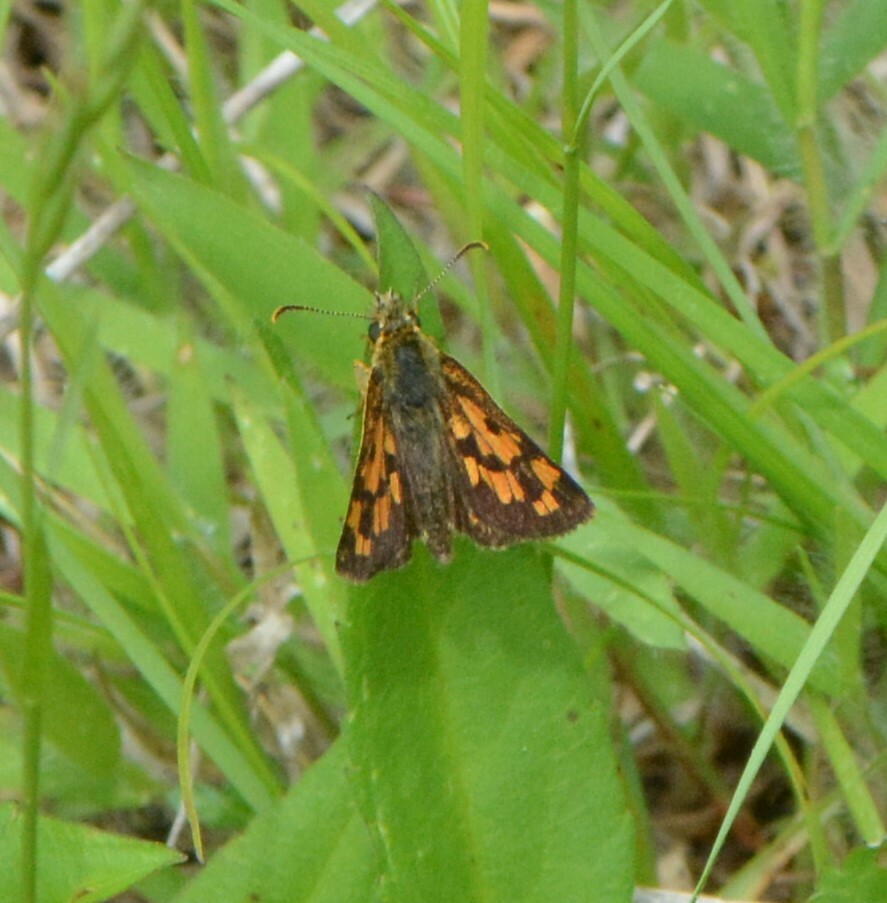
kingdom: Animalia
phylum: Arthropoda
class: Insecta
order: Lepidoptera
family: Hesperiidae
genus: Carterocephalus
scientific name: Carterocephalus mandan
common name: Arctic skipperling
